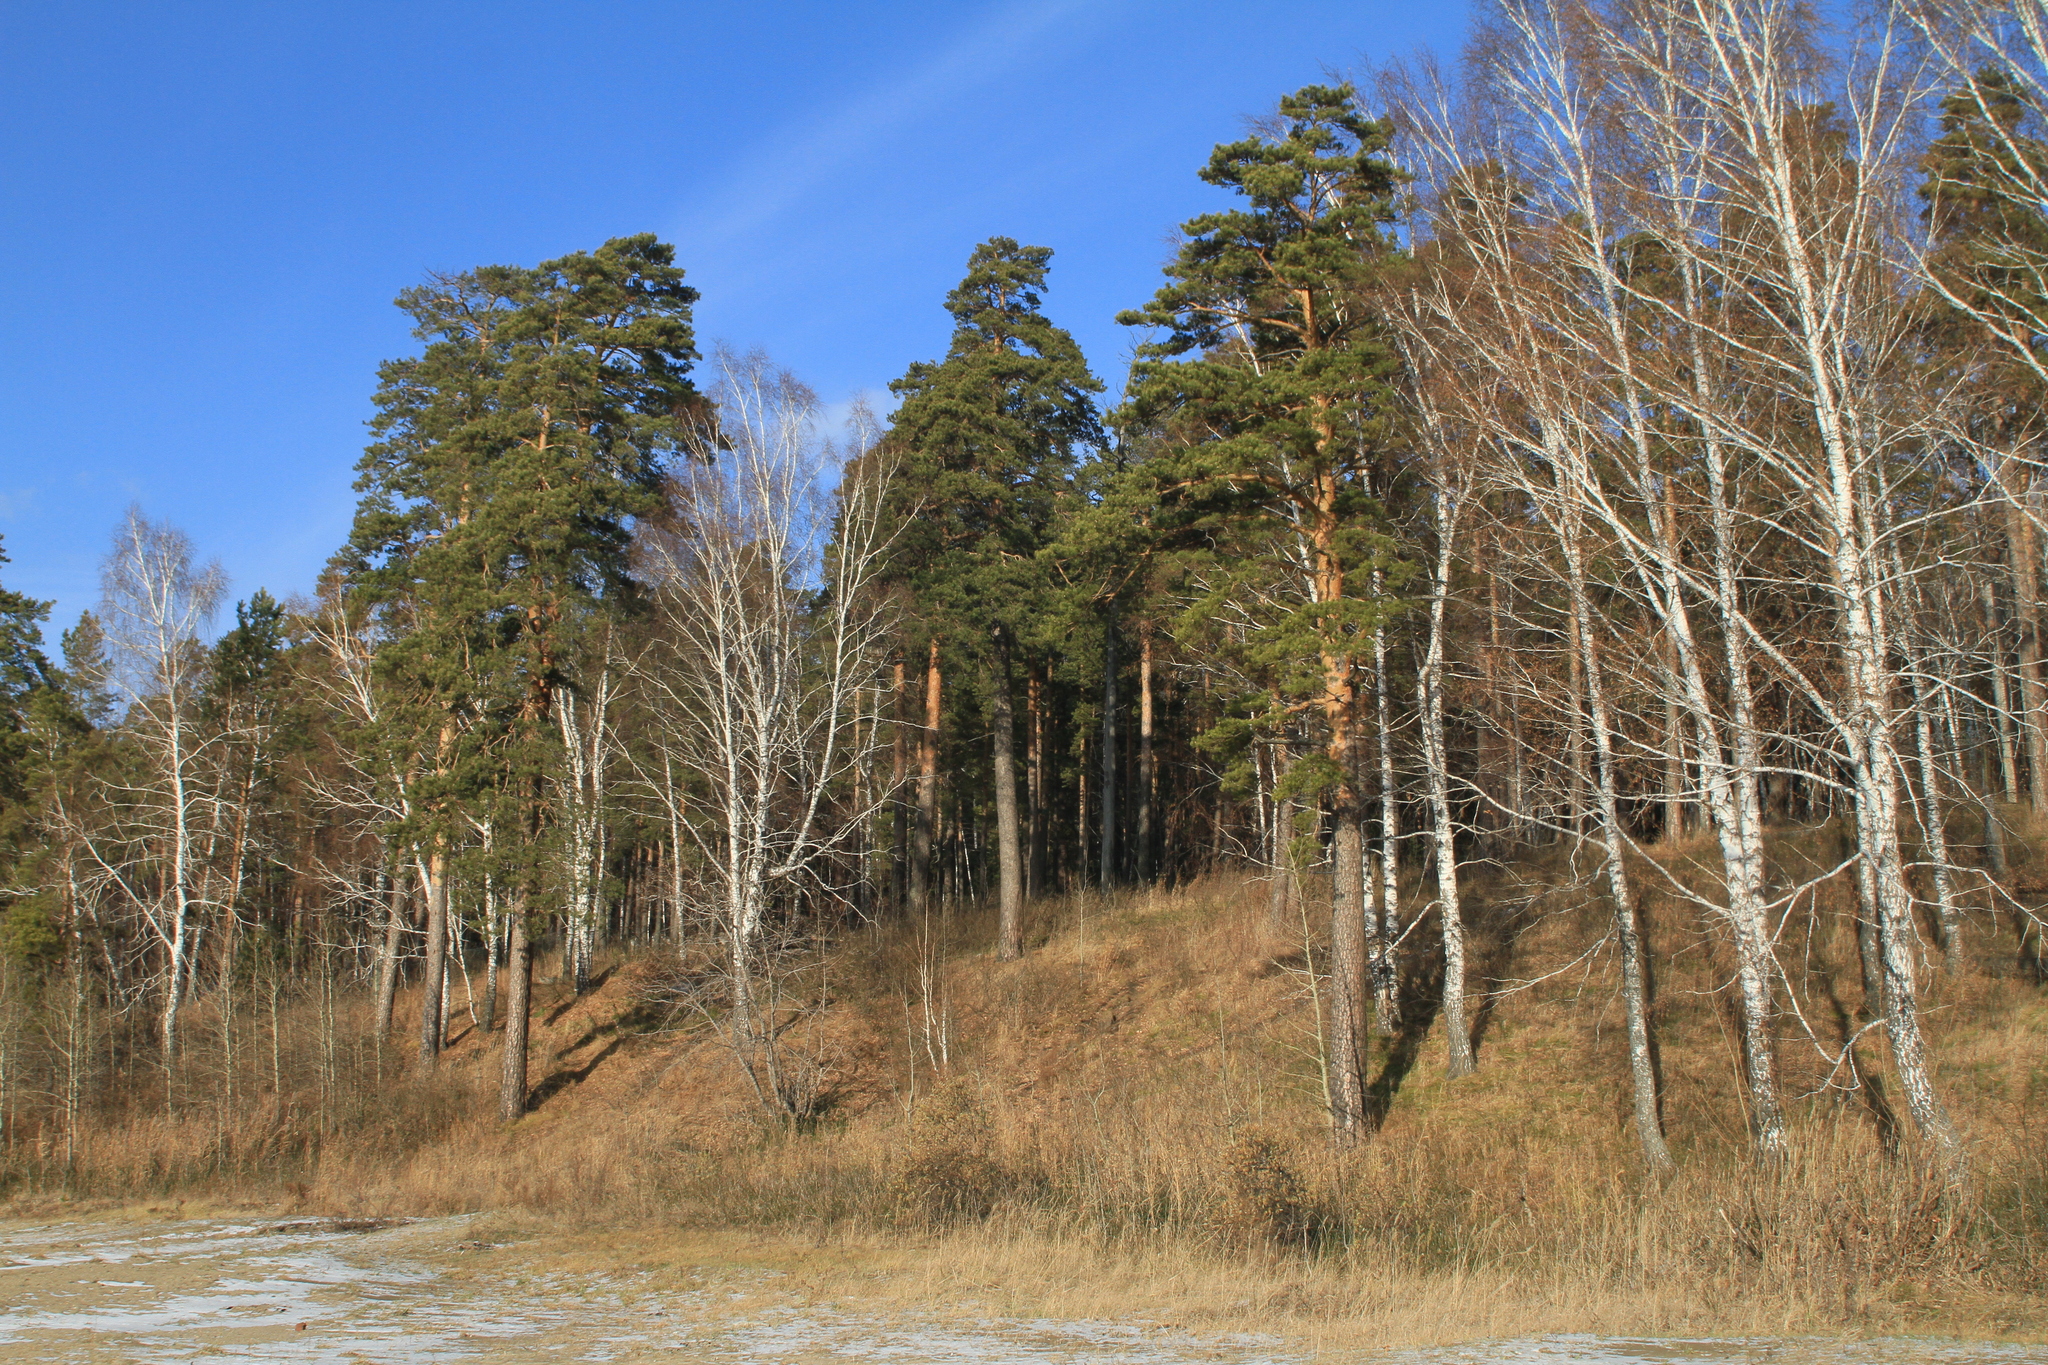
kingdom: Plantae
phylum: Tracheophyta
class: Magnoliopsida
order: Fagales
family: Betulaceae
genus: Betula
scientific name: Betula pendula
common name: Silver birch
